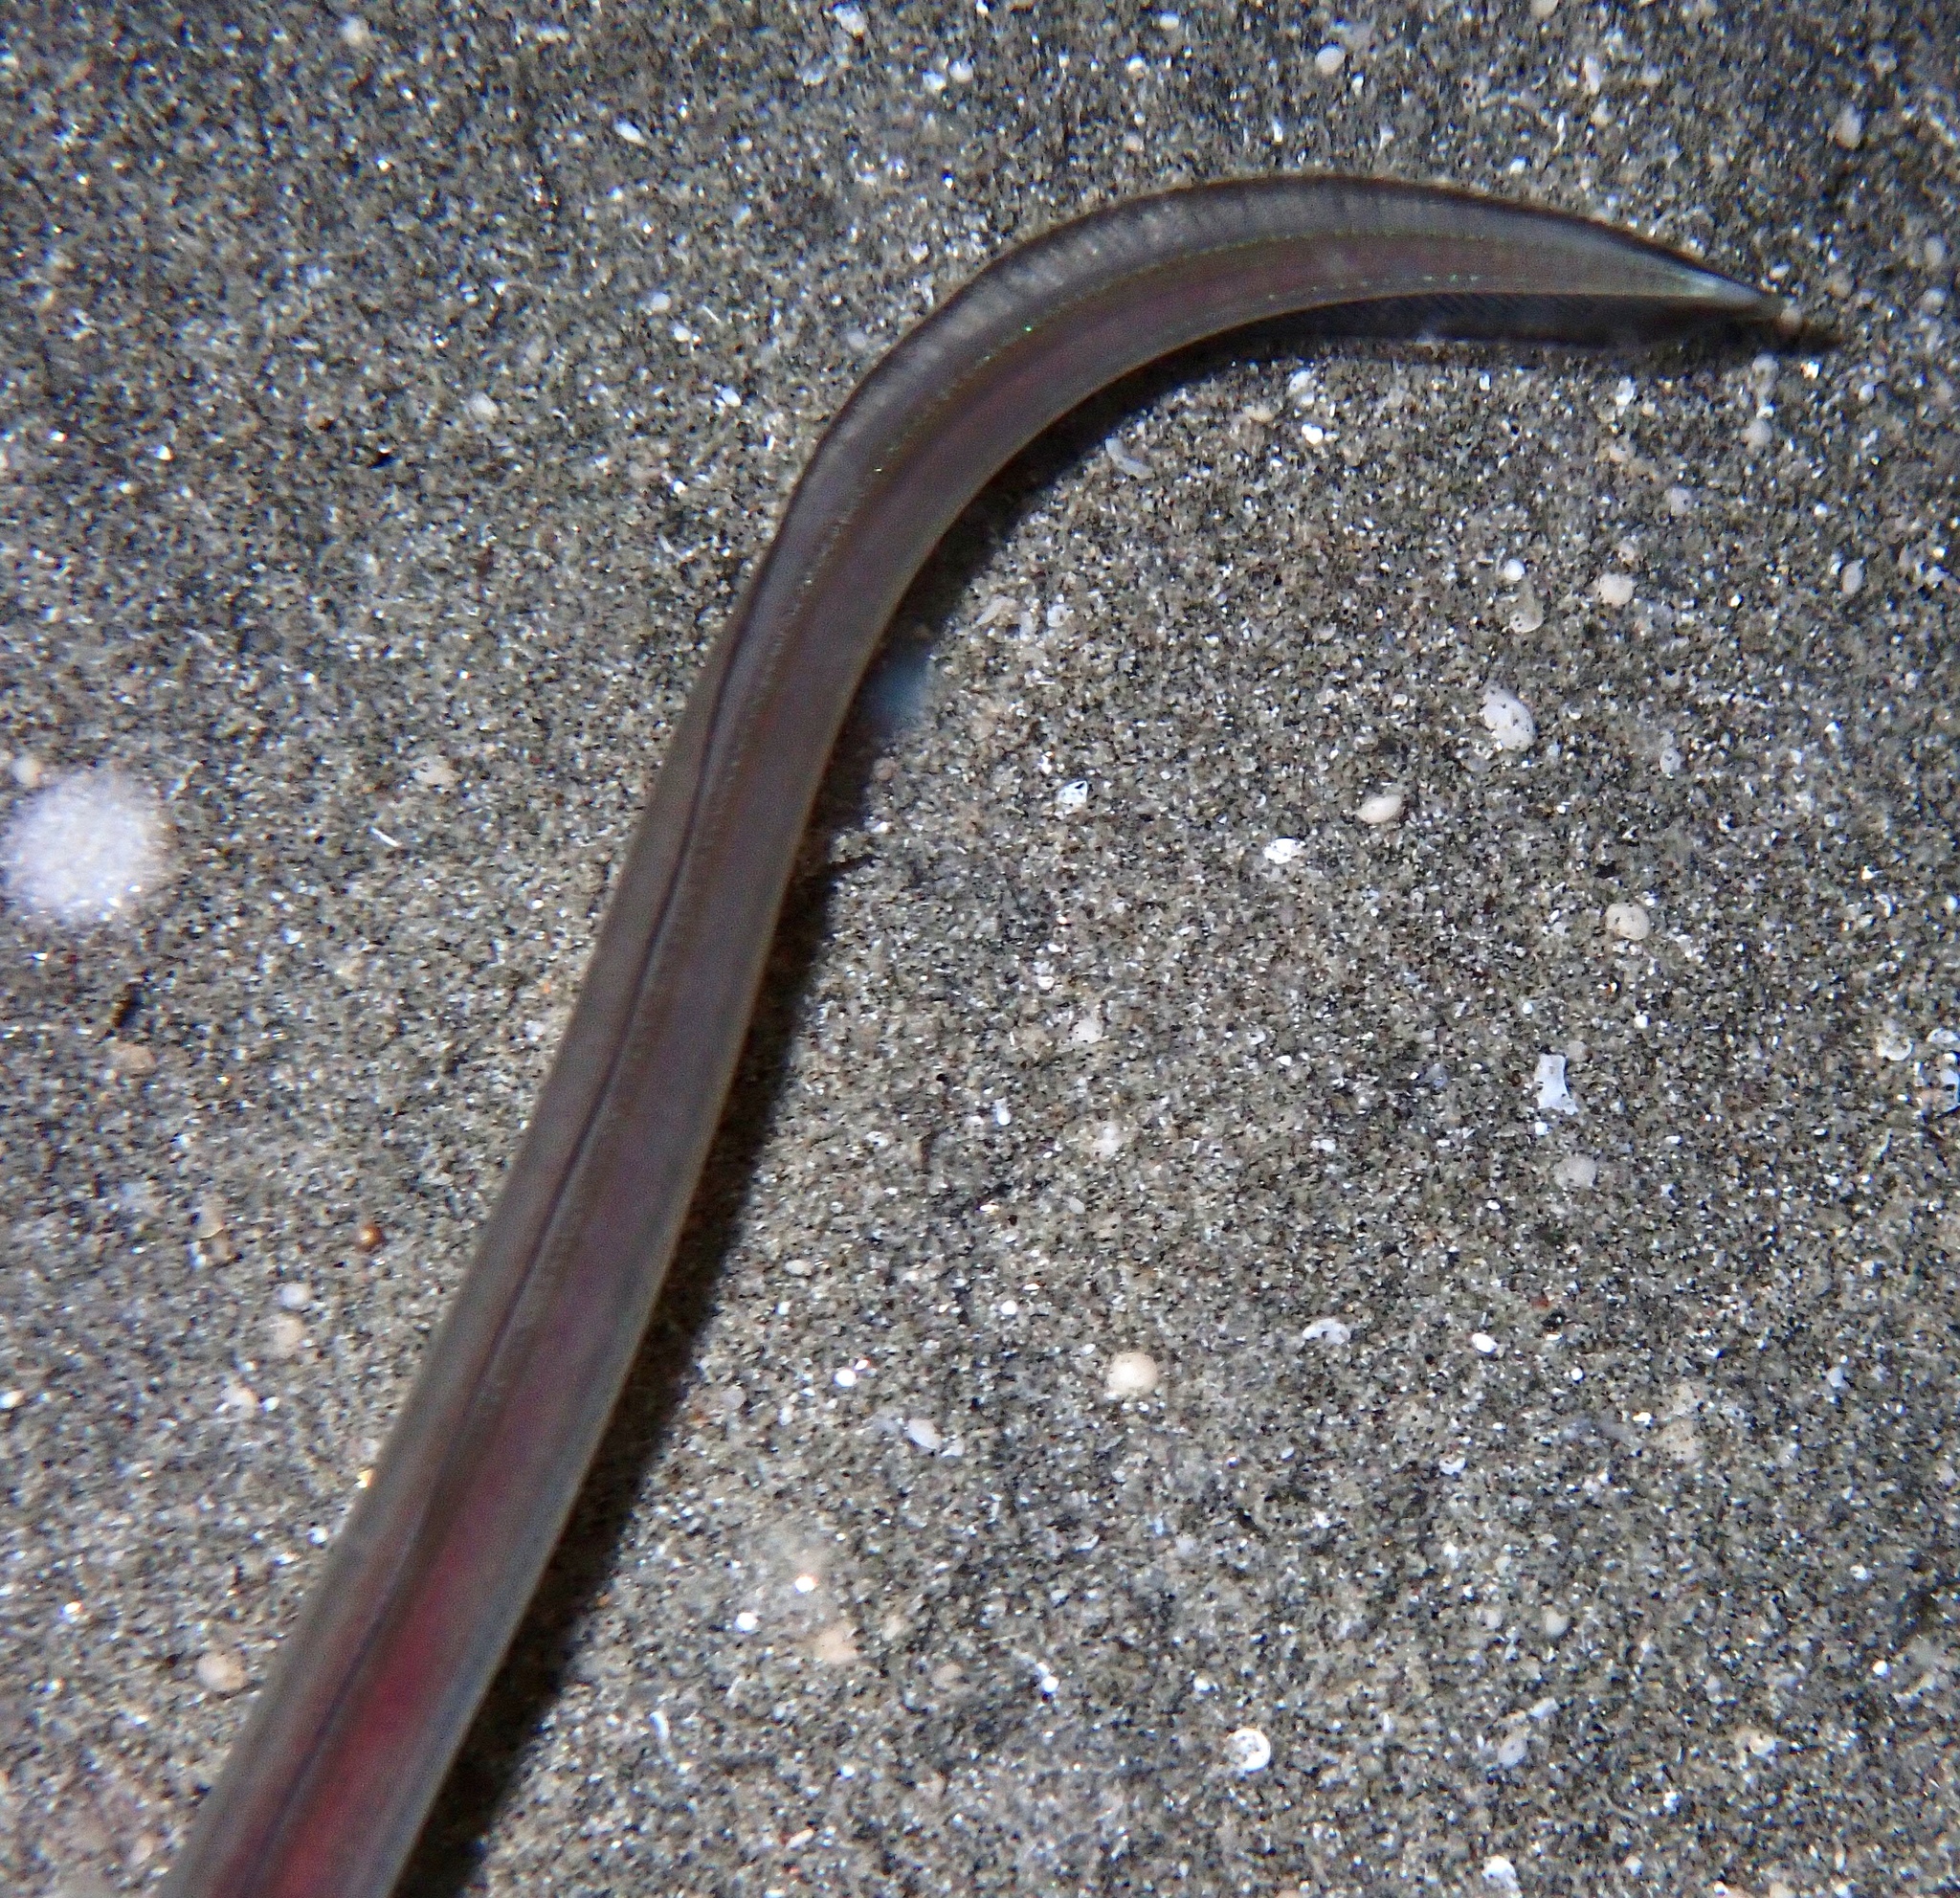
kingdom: Animalia
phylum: Chordata
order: Anguilliformes
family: Congridae
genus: Ariosoma
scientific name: Ariosoma sanzoi
